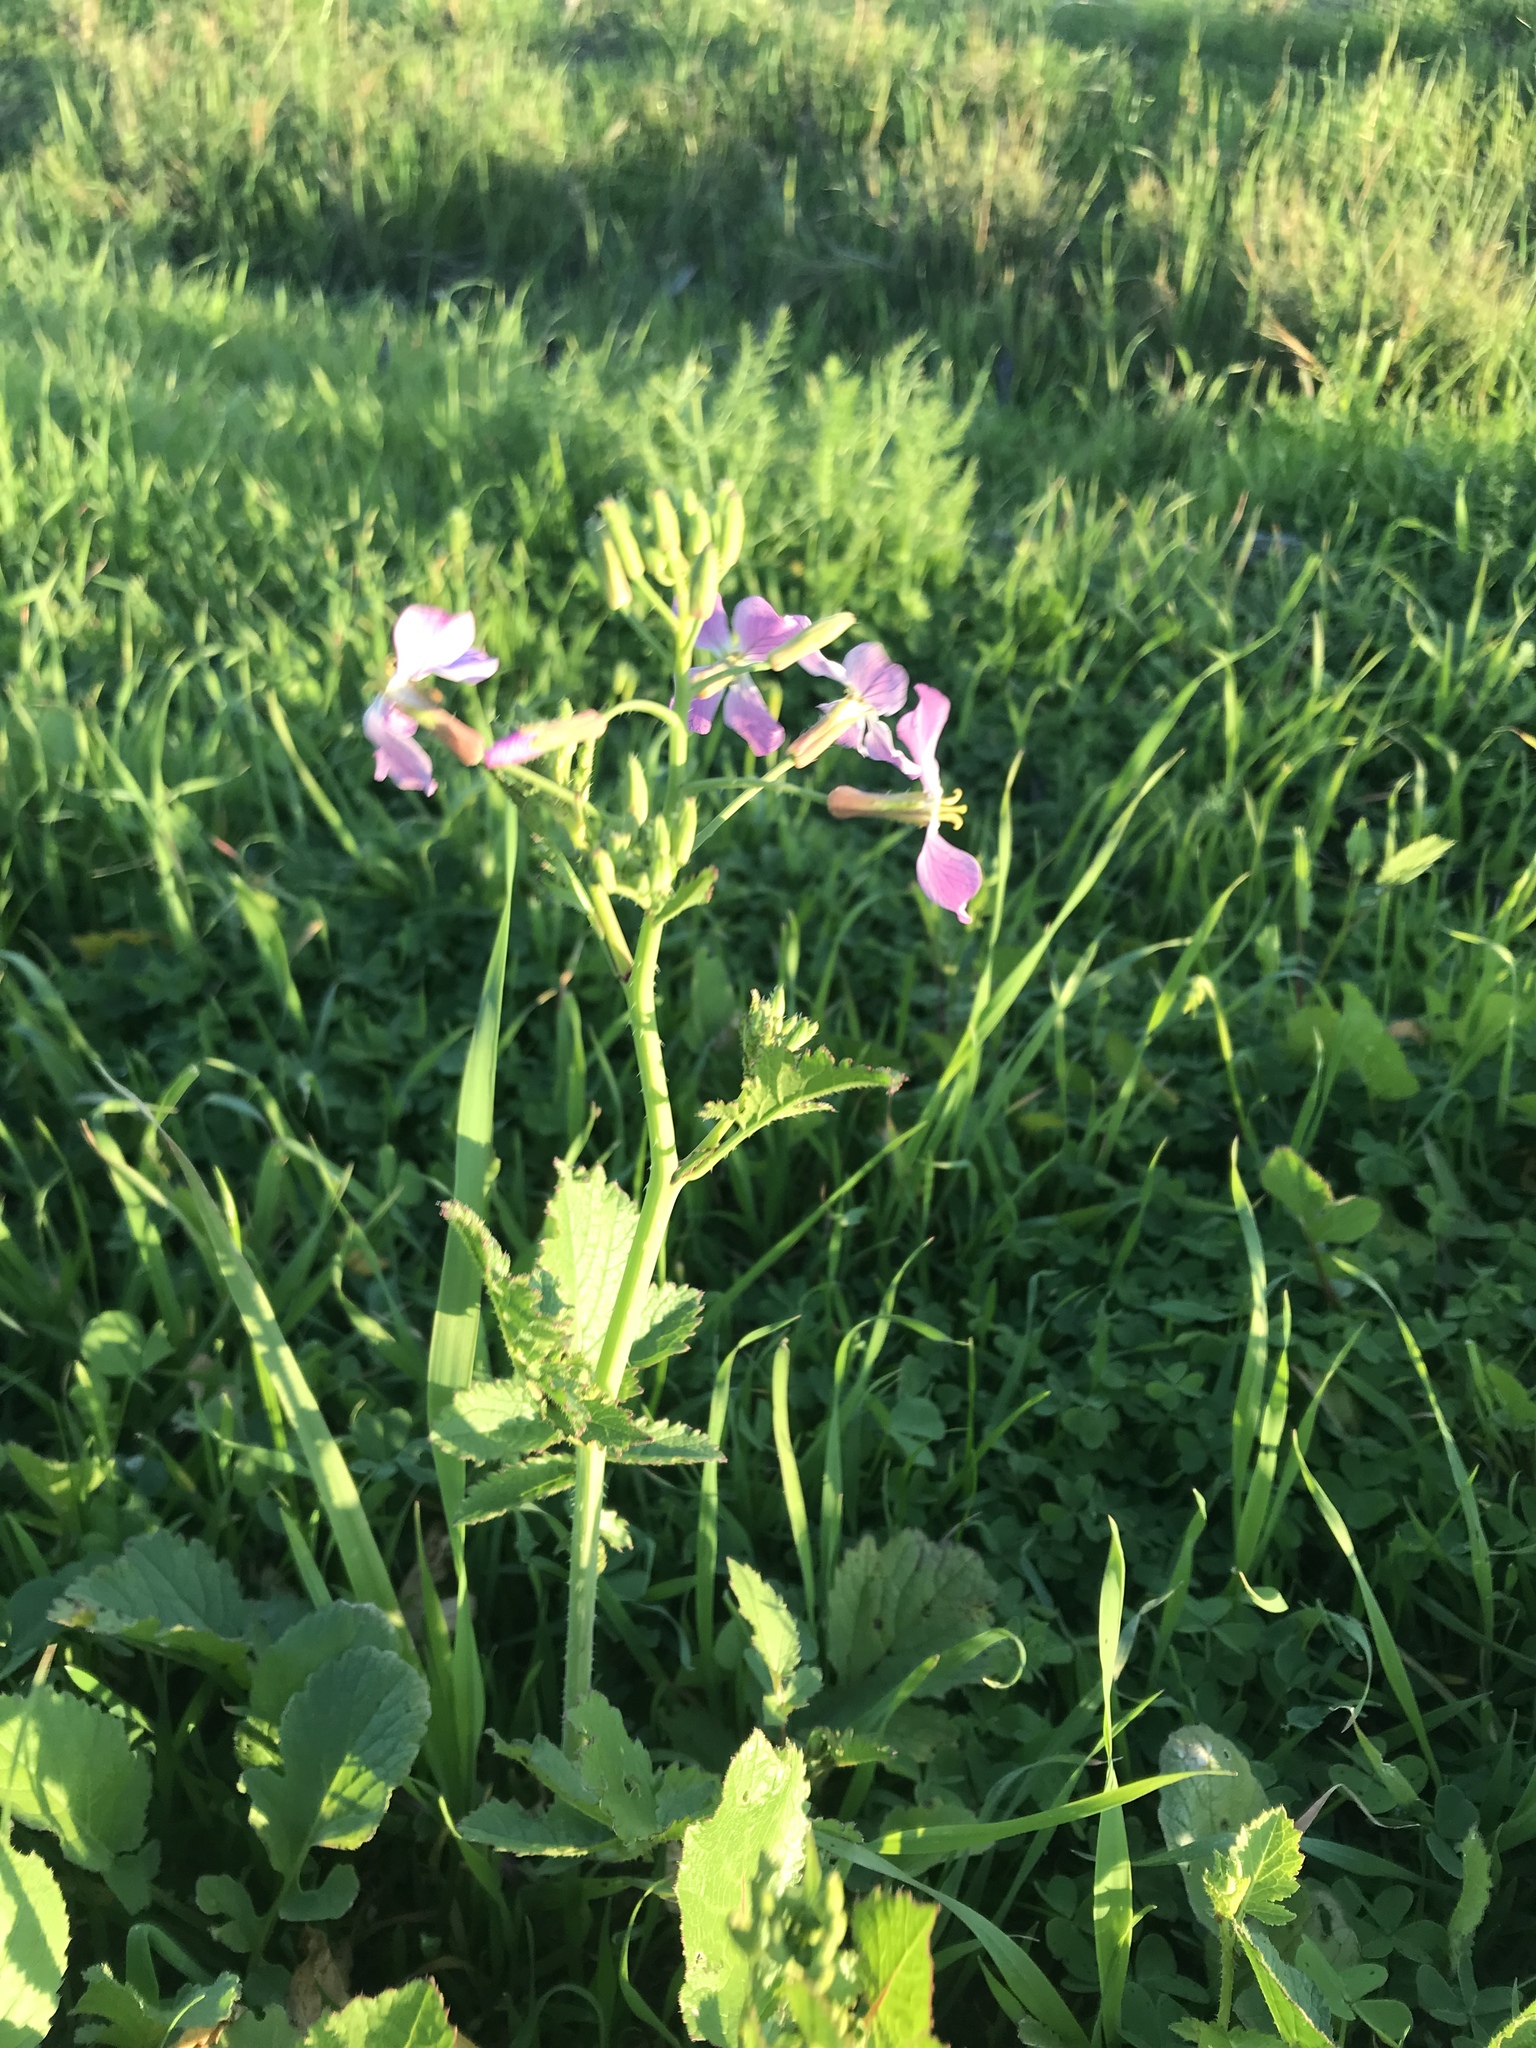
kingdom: Plantae
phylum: Tracheophyta
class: Magnoliopsida
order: Brassicales
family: Brassicaceae
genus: Raphanus
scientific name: Raphanus sativus
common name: Cultivated radish
